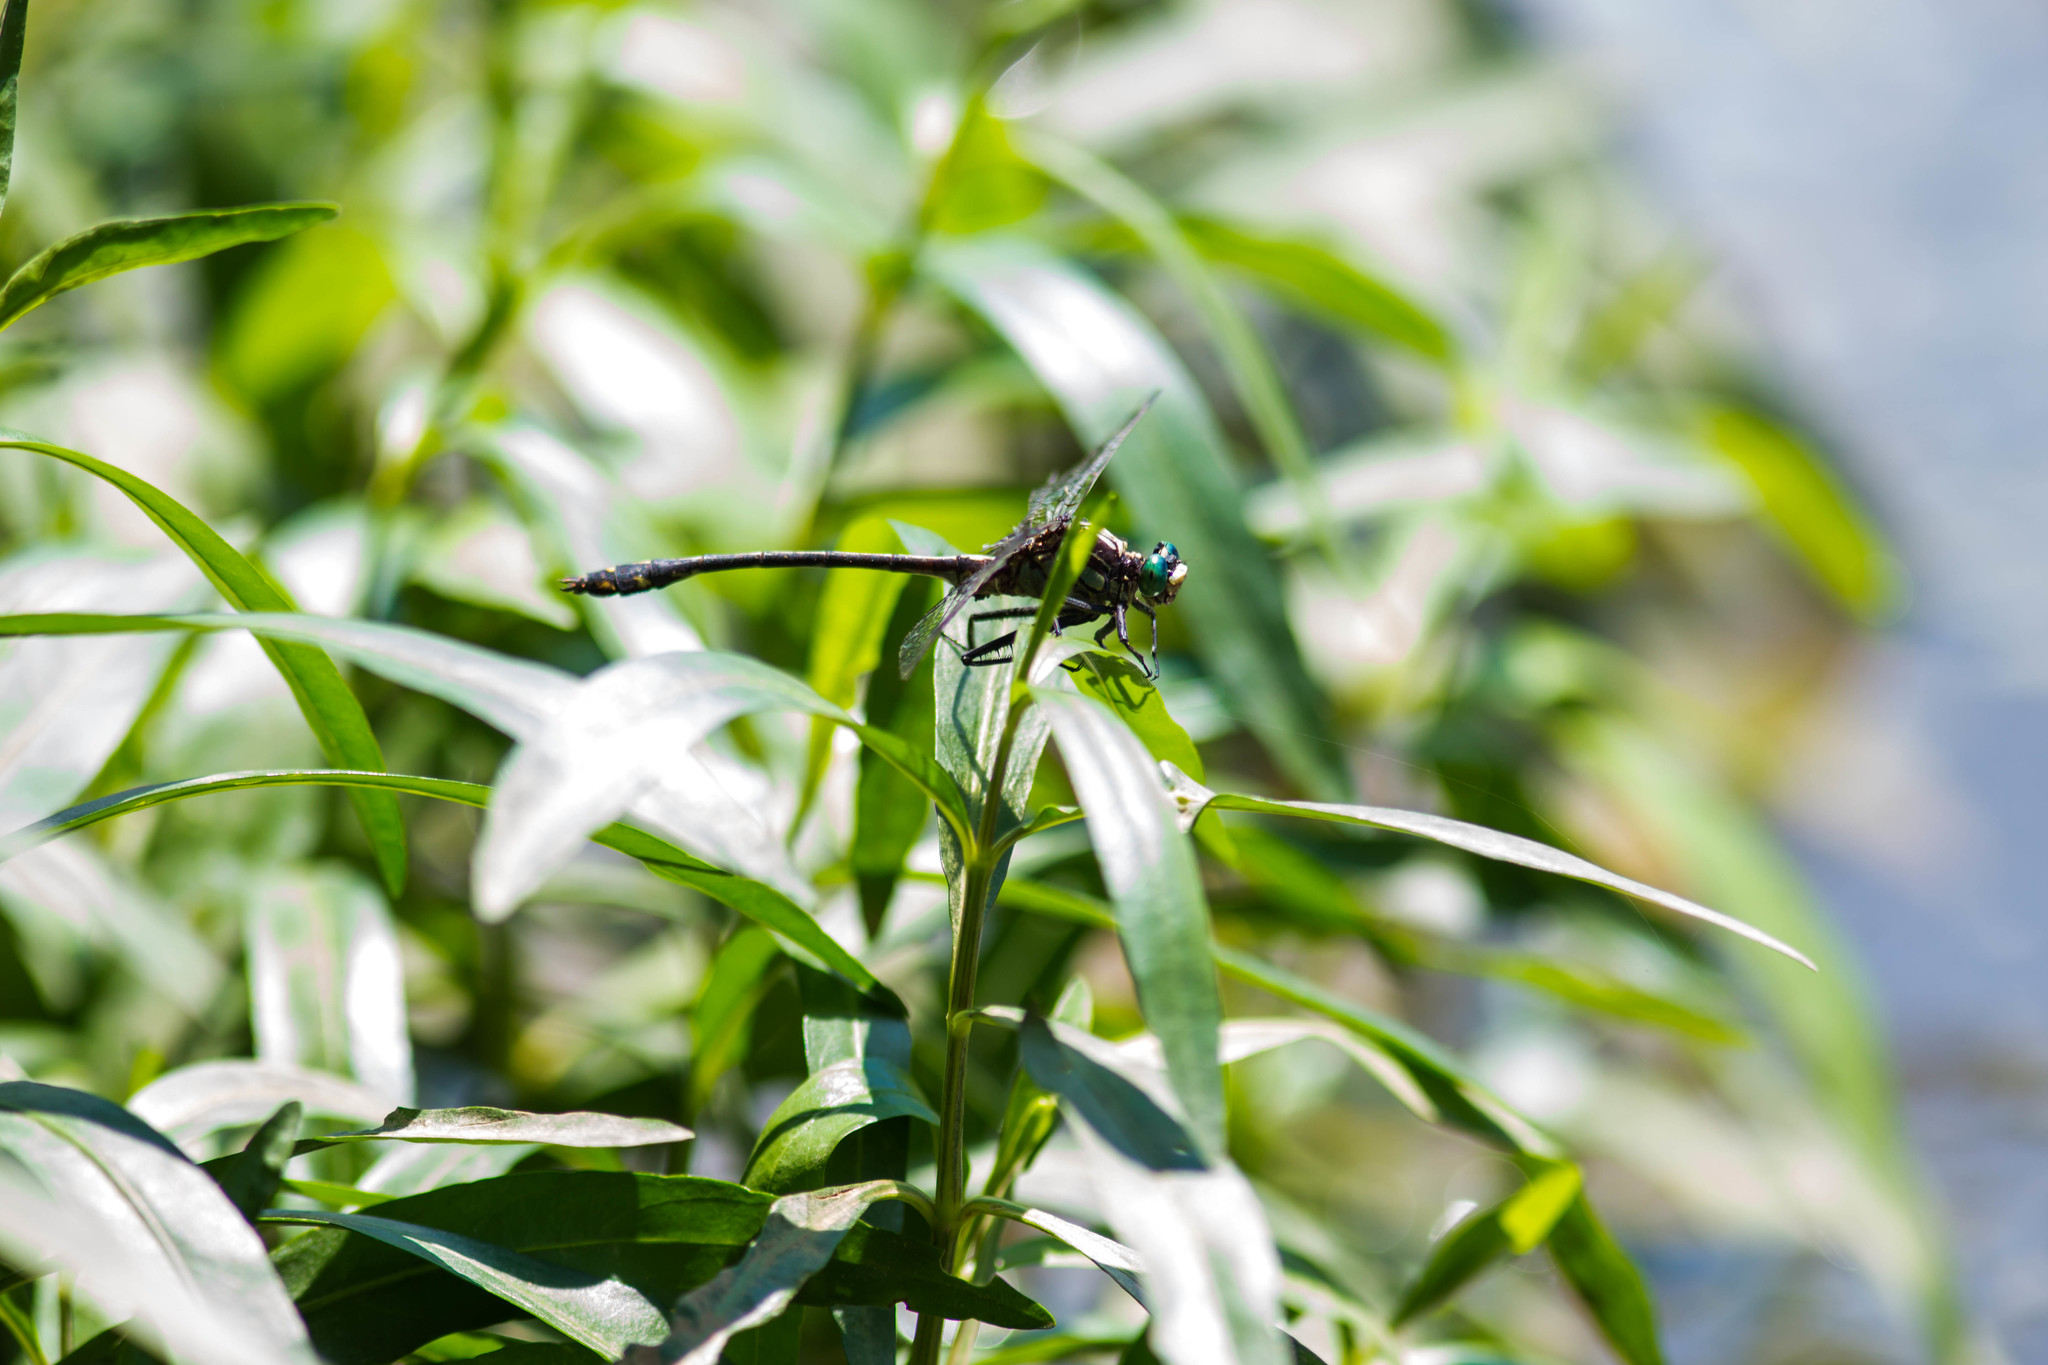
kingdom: Animalia
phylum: Arthropoda
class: Insecta
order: Odonata
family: Gomphidae
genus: Dromogomphus
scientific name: Dromogomphus spinosus
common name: Black-shouldered spinyleg
